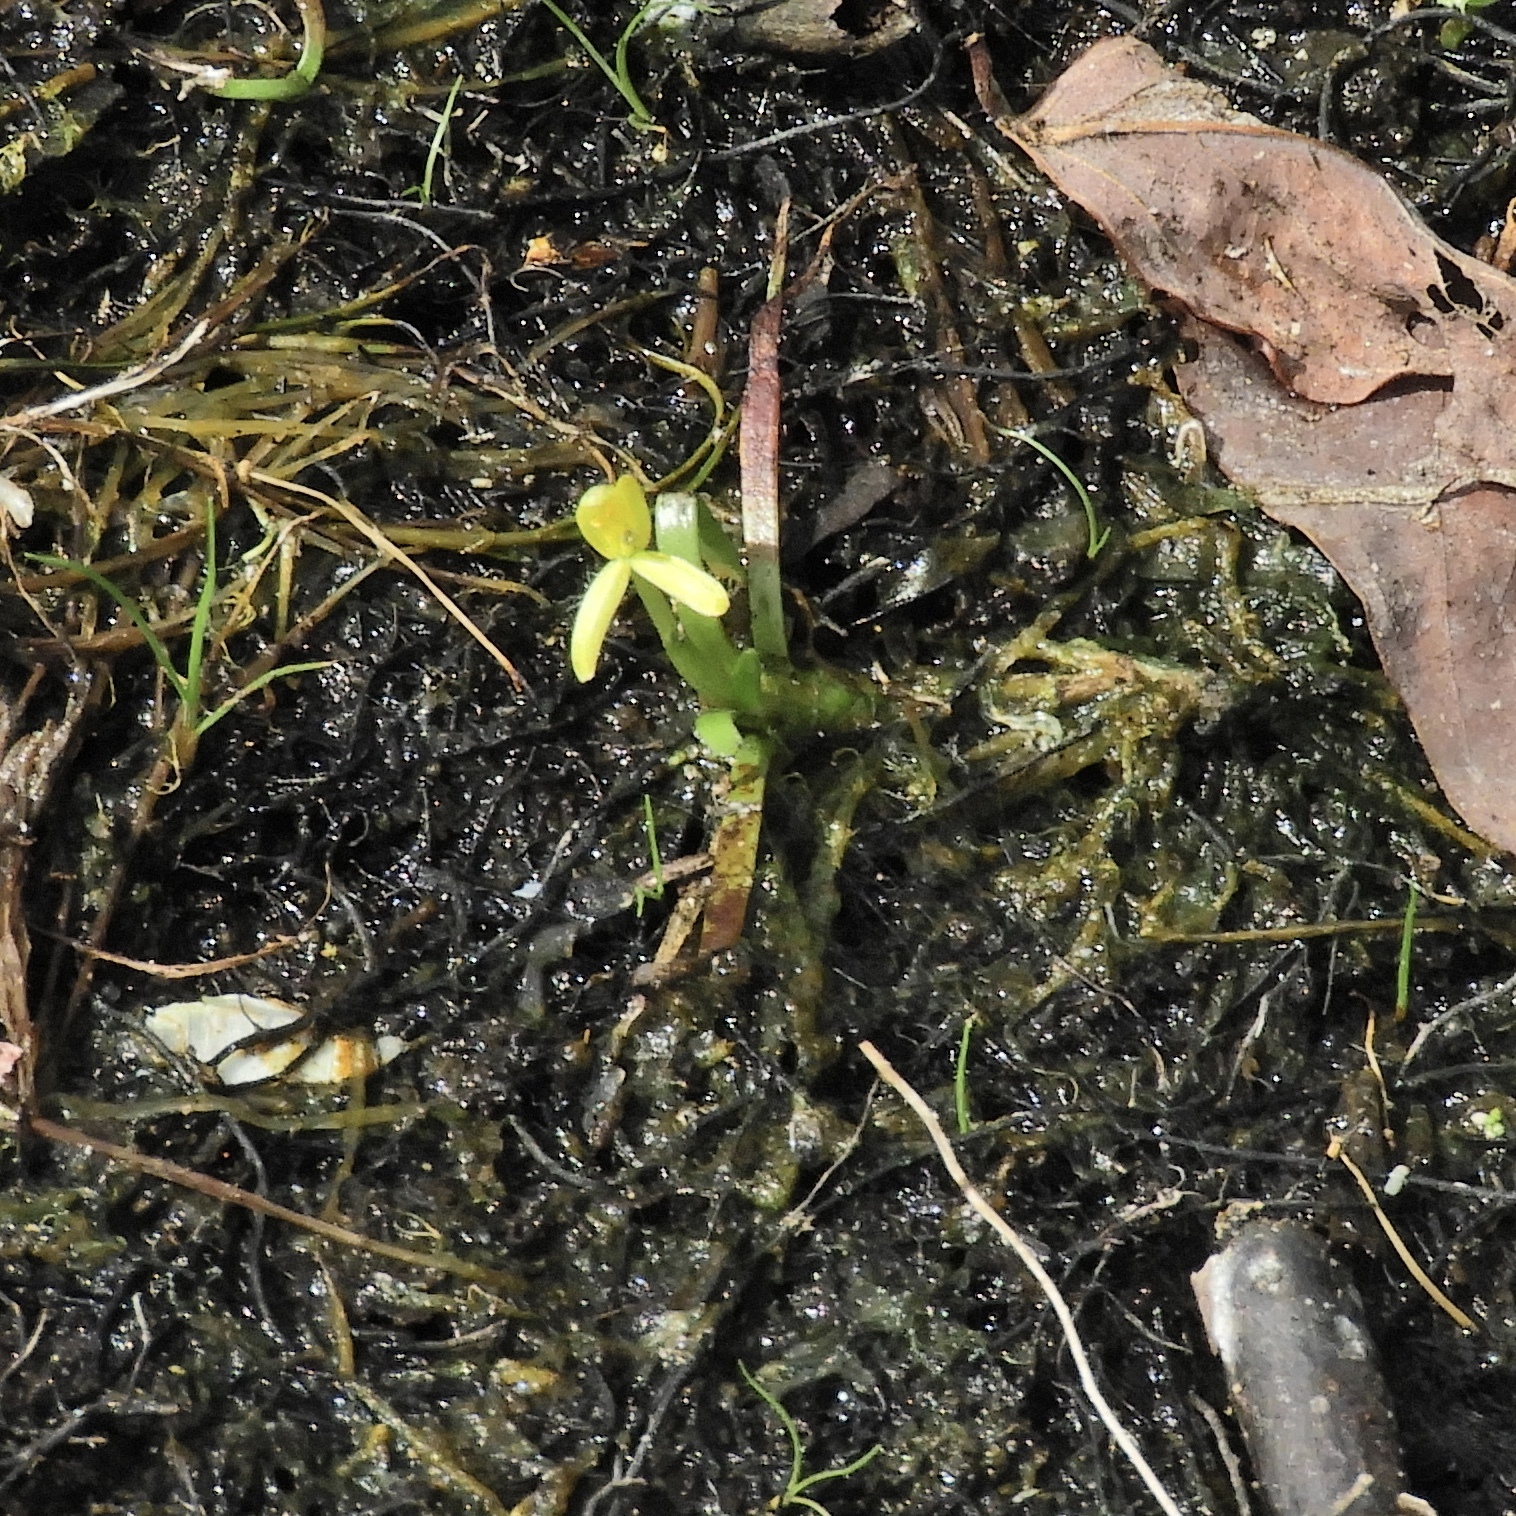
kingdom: Plantae
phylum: Tracheophyta
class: Liliopsida
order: Commelinales
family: Pontederiaceae
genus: Heteranthera
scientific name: Heteranthera dubia
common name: Grass-leaved mud plantain
